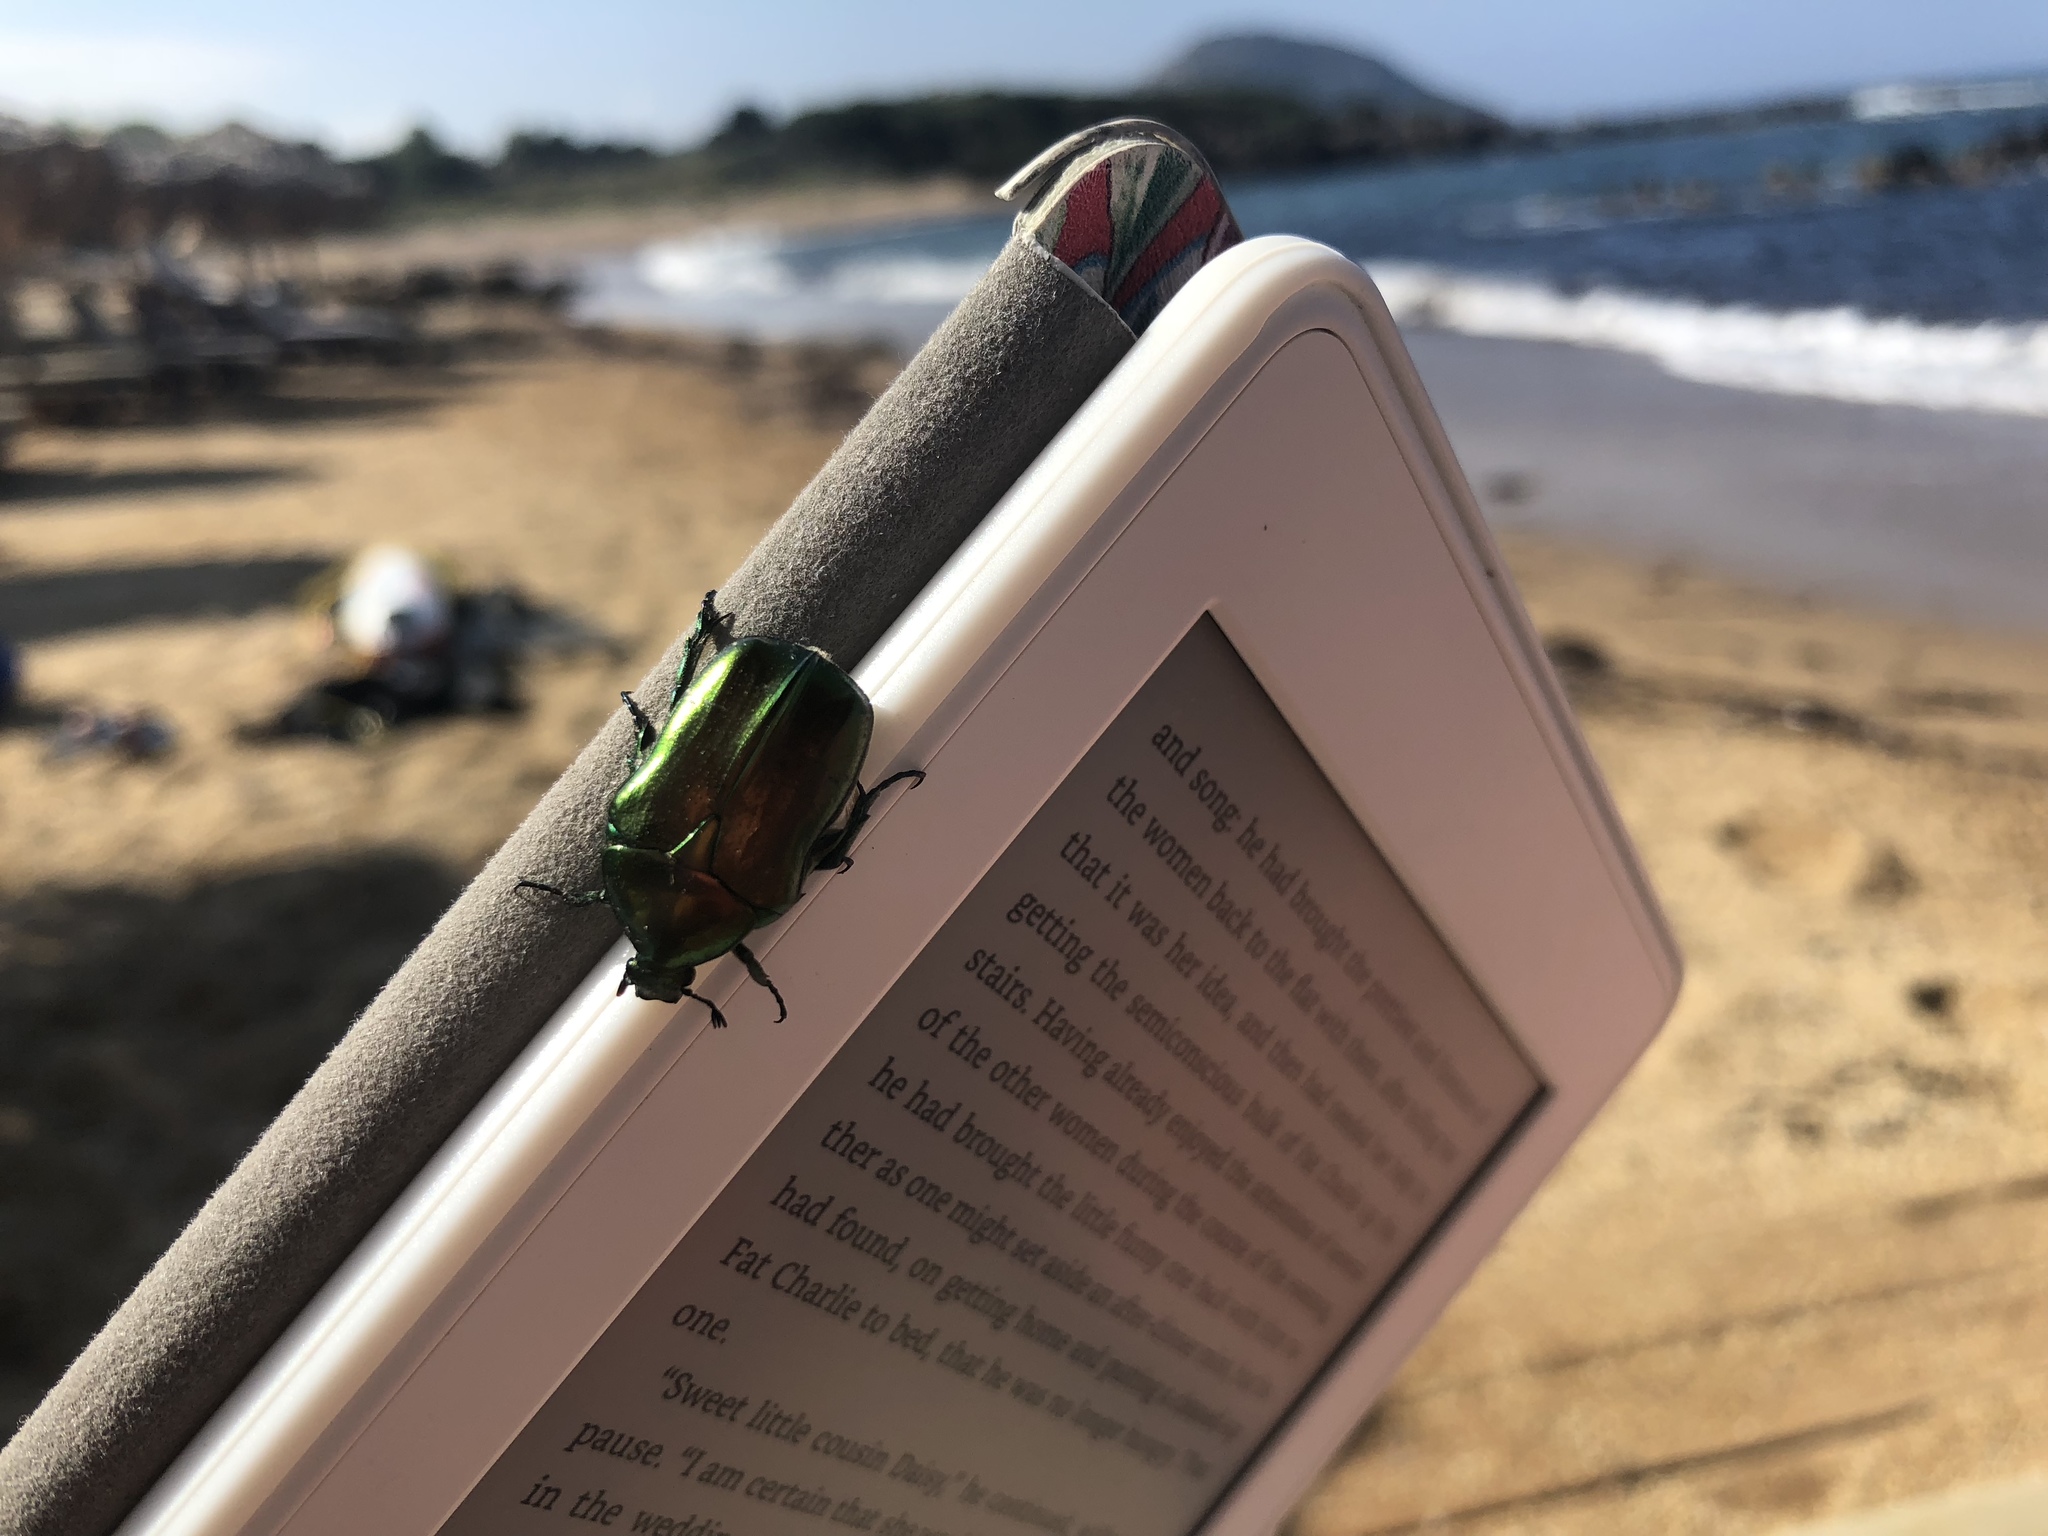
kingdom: Animalia
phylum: Arthropoda
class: Insecta
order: Coleoptera
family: Scarabaeidae
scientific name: Scarabaeidae
